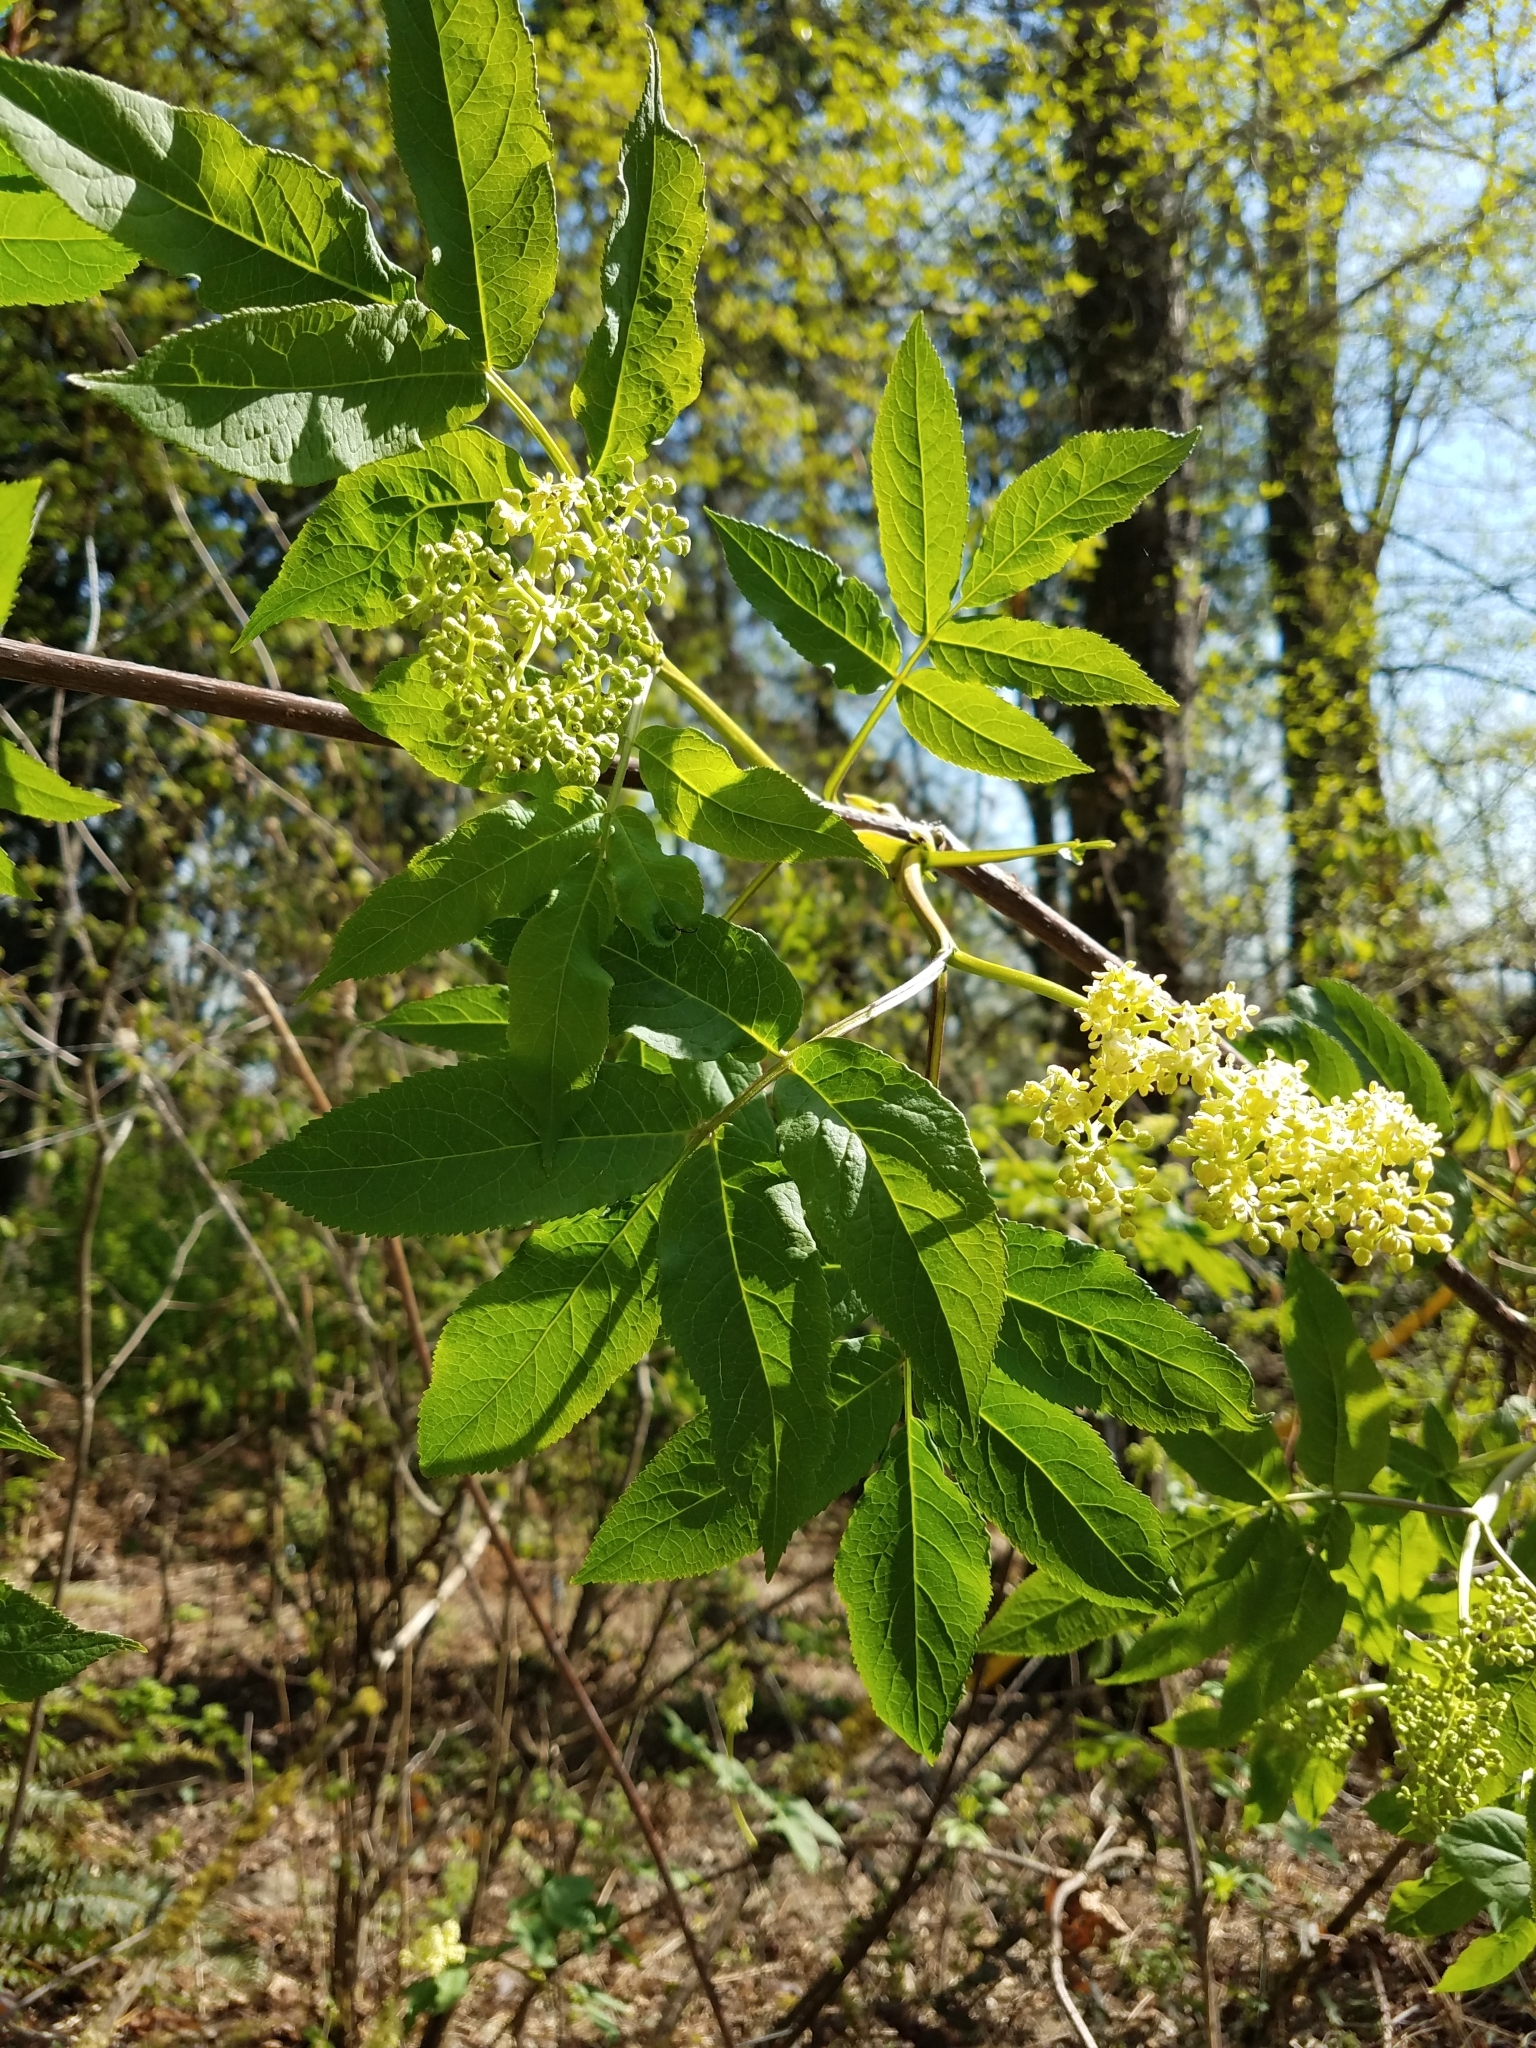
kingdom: Plantae
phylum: Tracheophyta
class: Magnoliopsida
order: Dipsacales
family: Viburnaceae
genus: Sambucus
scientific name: Sambucus racemosa
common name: Red-berried elder
